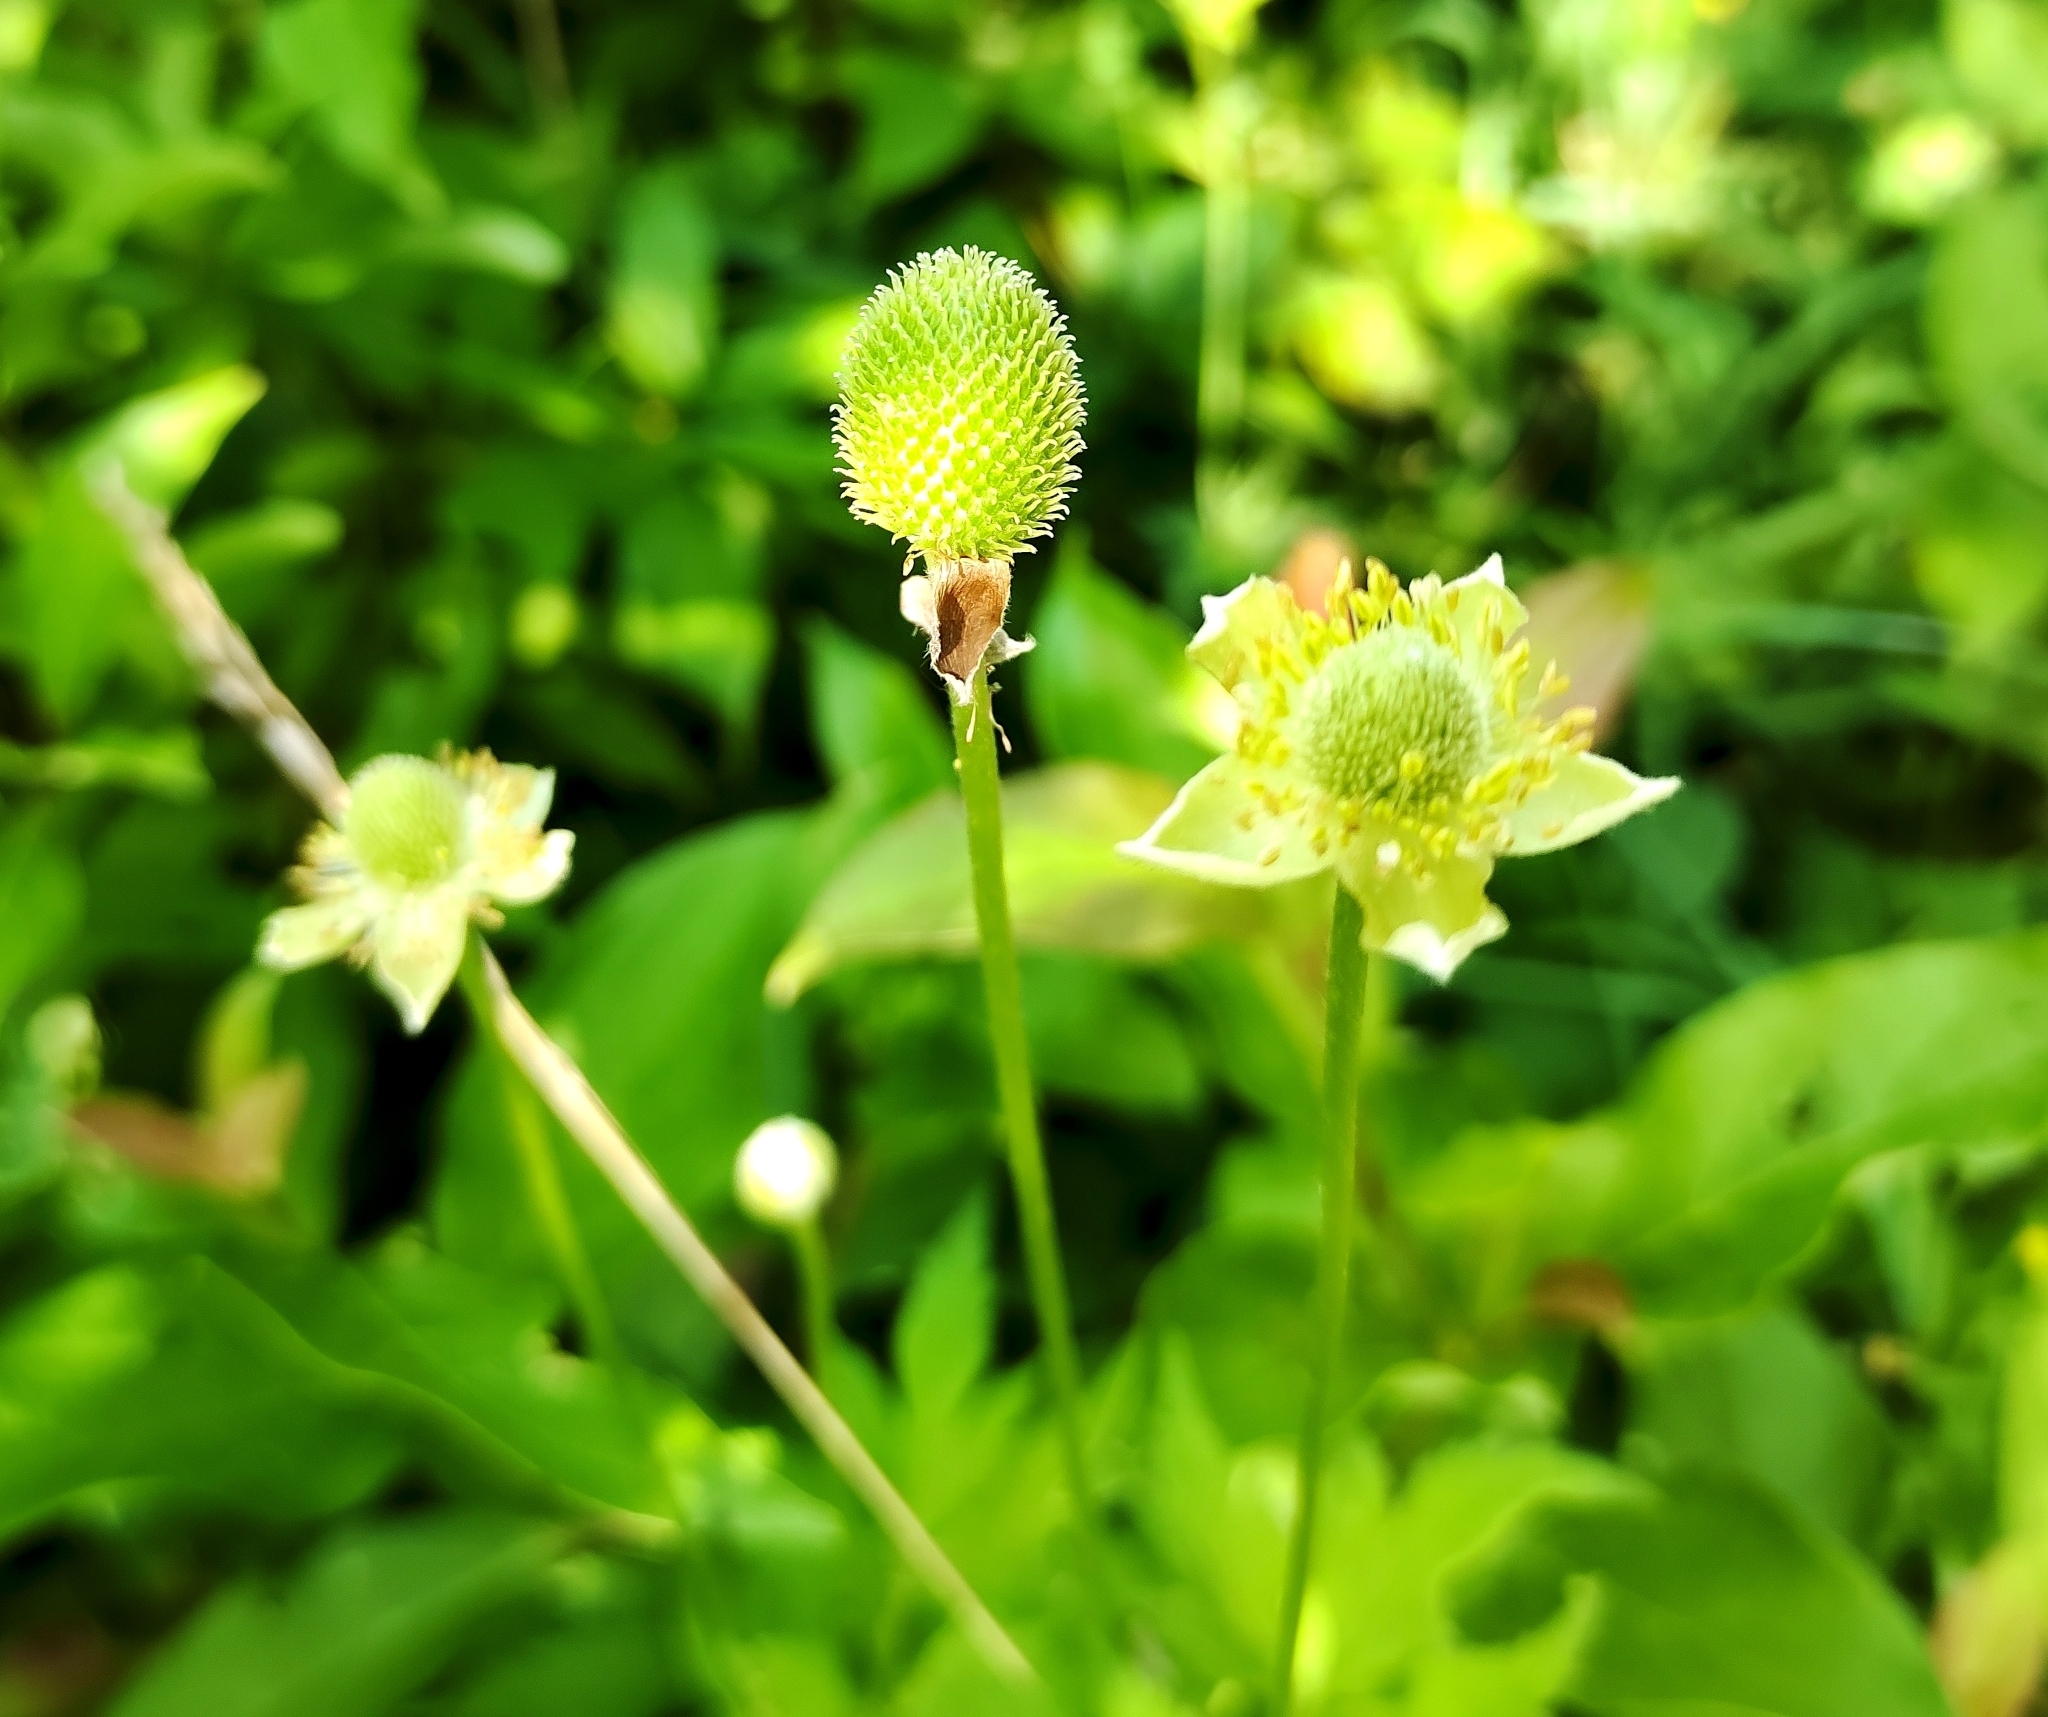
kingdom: Plantae
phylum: Tracheophyta
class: Magnoliopsida
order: Ranunculales
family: Ranunculaceae
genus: Anemone
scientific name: Anemone virginiana
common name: Tall anemone
